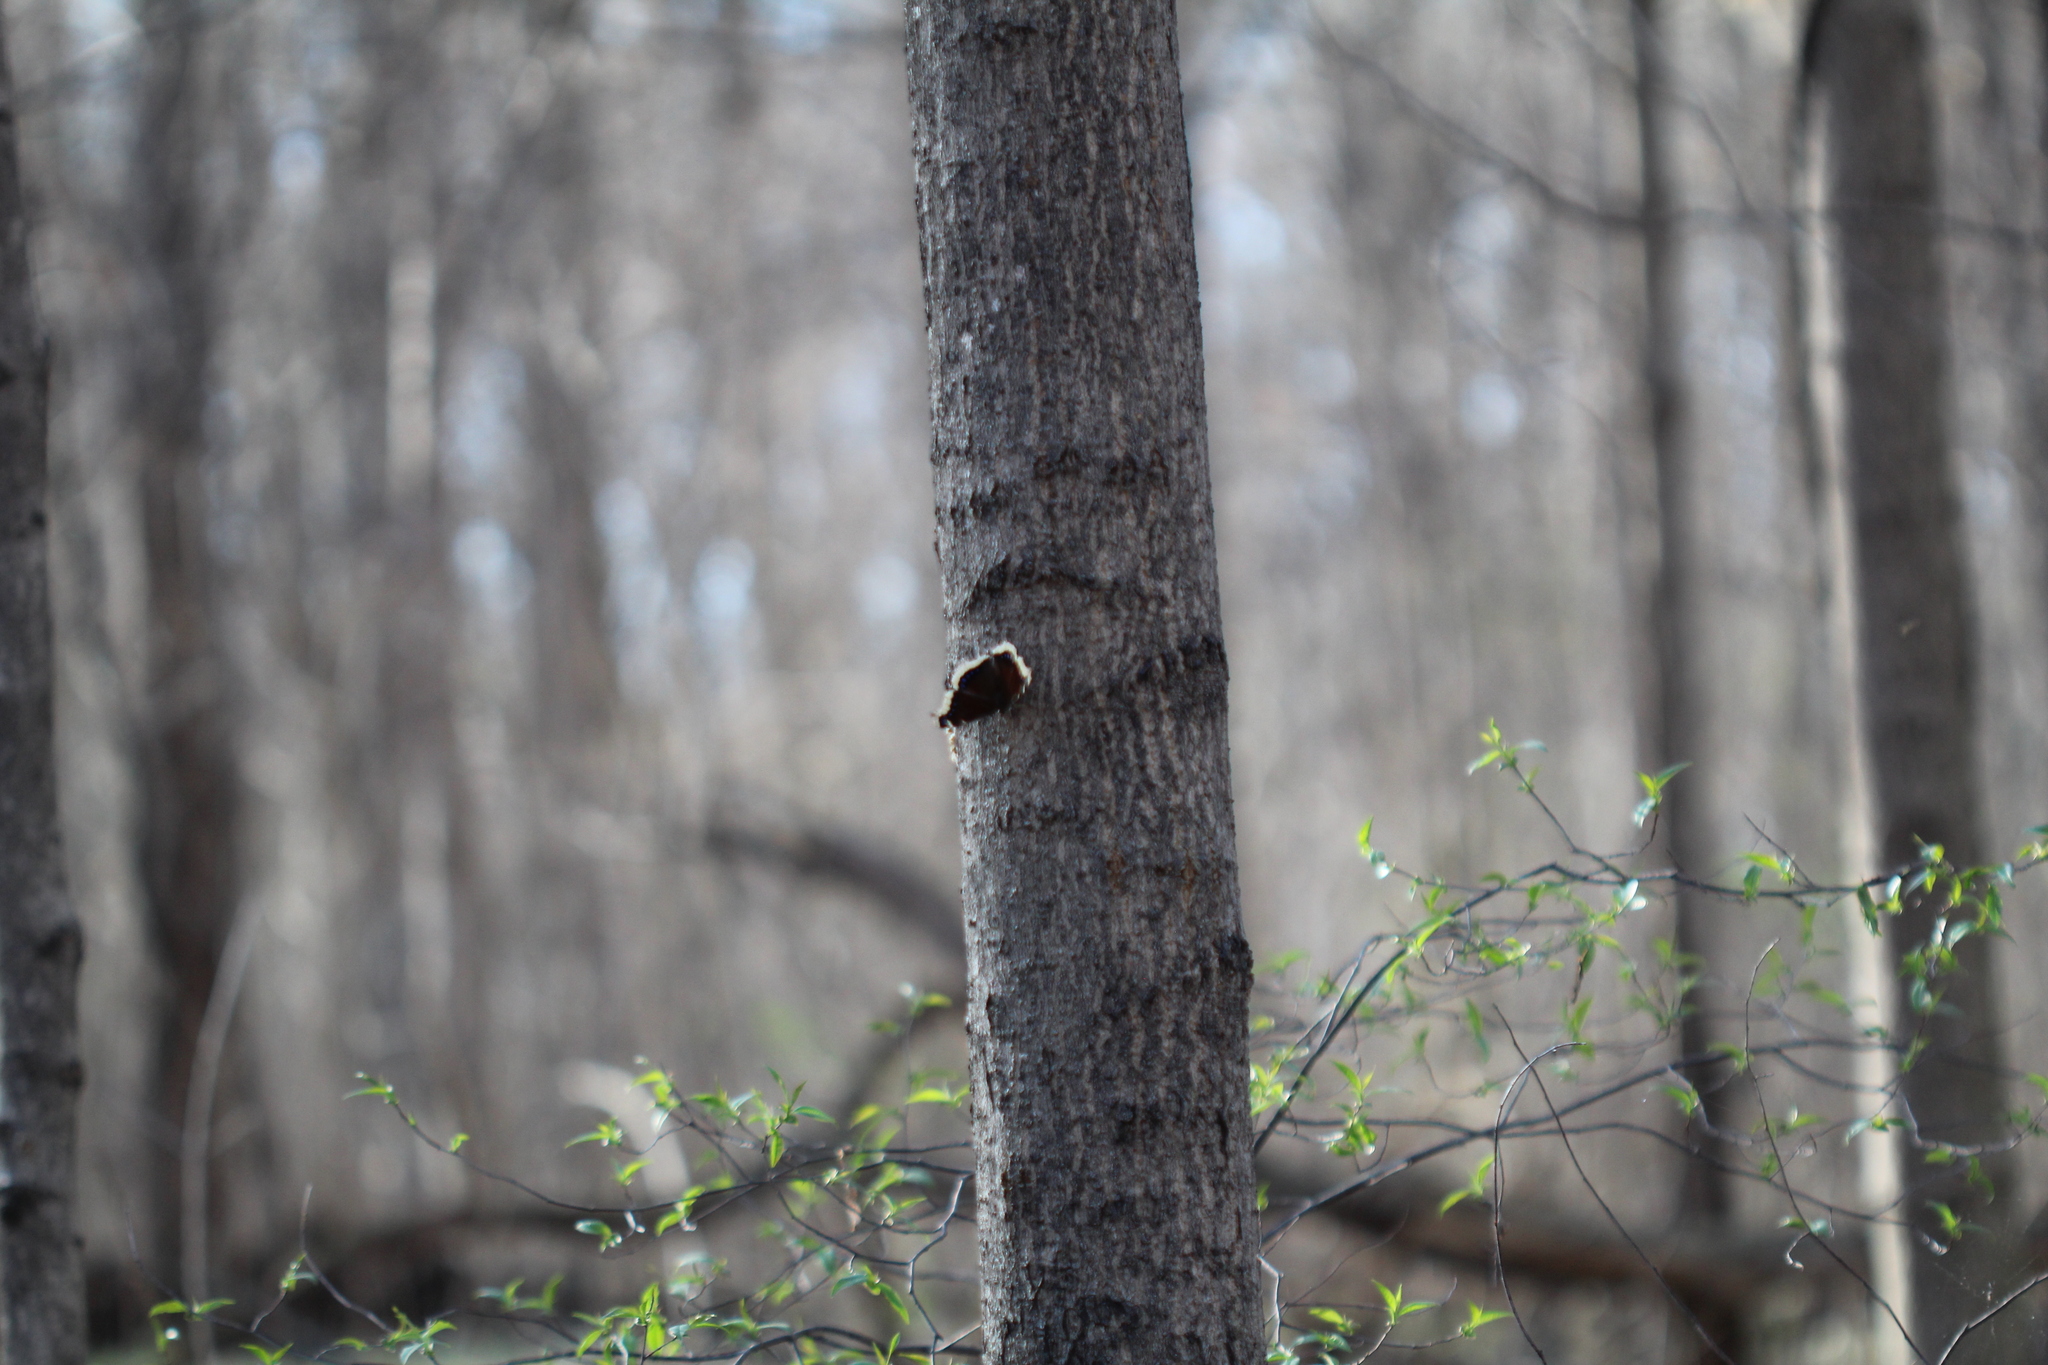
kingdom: Animalia
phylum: Arthropoda
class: Insecta
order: Lepidoptera
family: Nymphalidae
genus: Nymphalis
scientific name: Nymphalis antiopa
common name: Camberwell beauty
